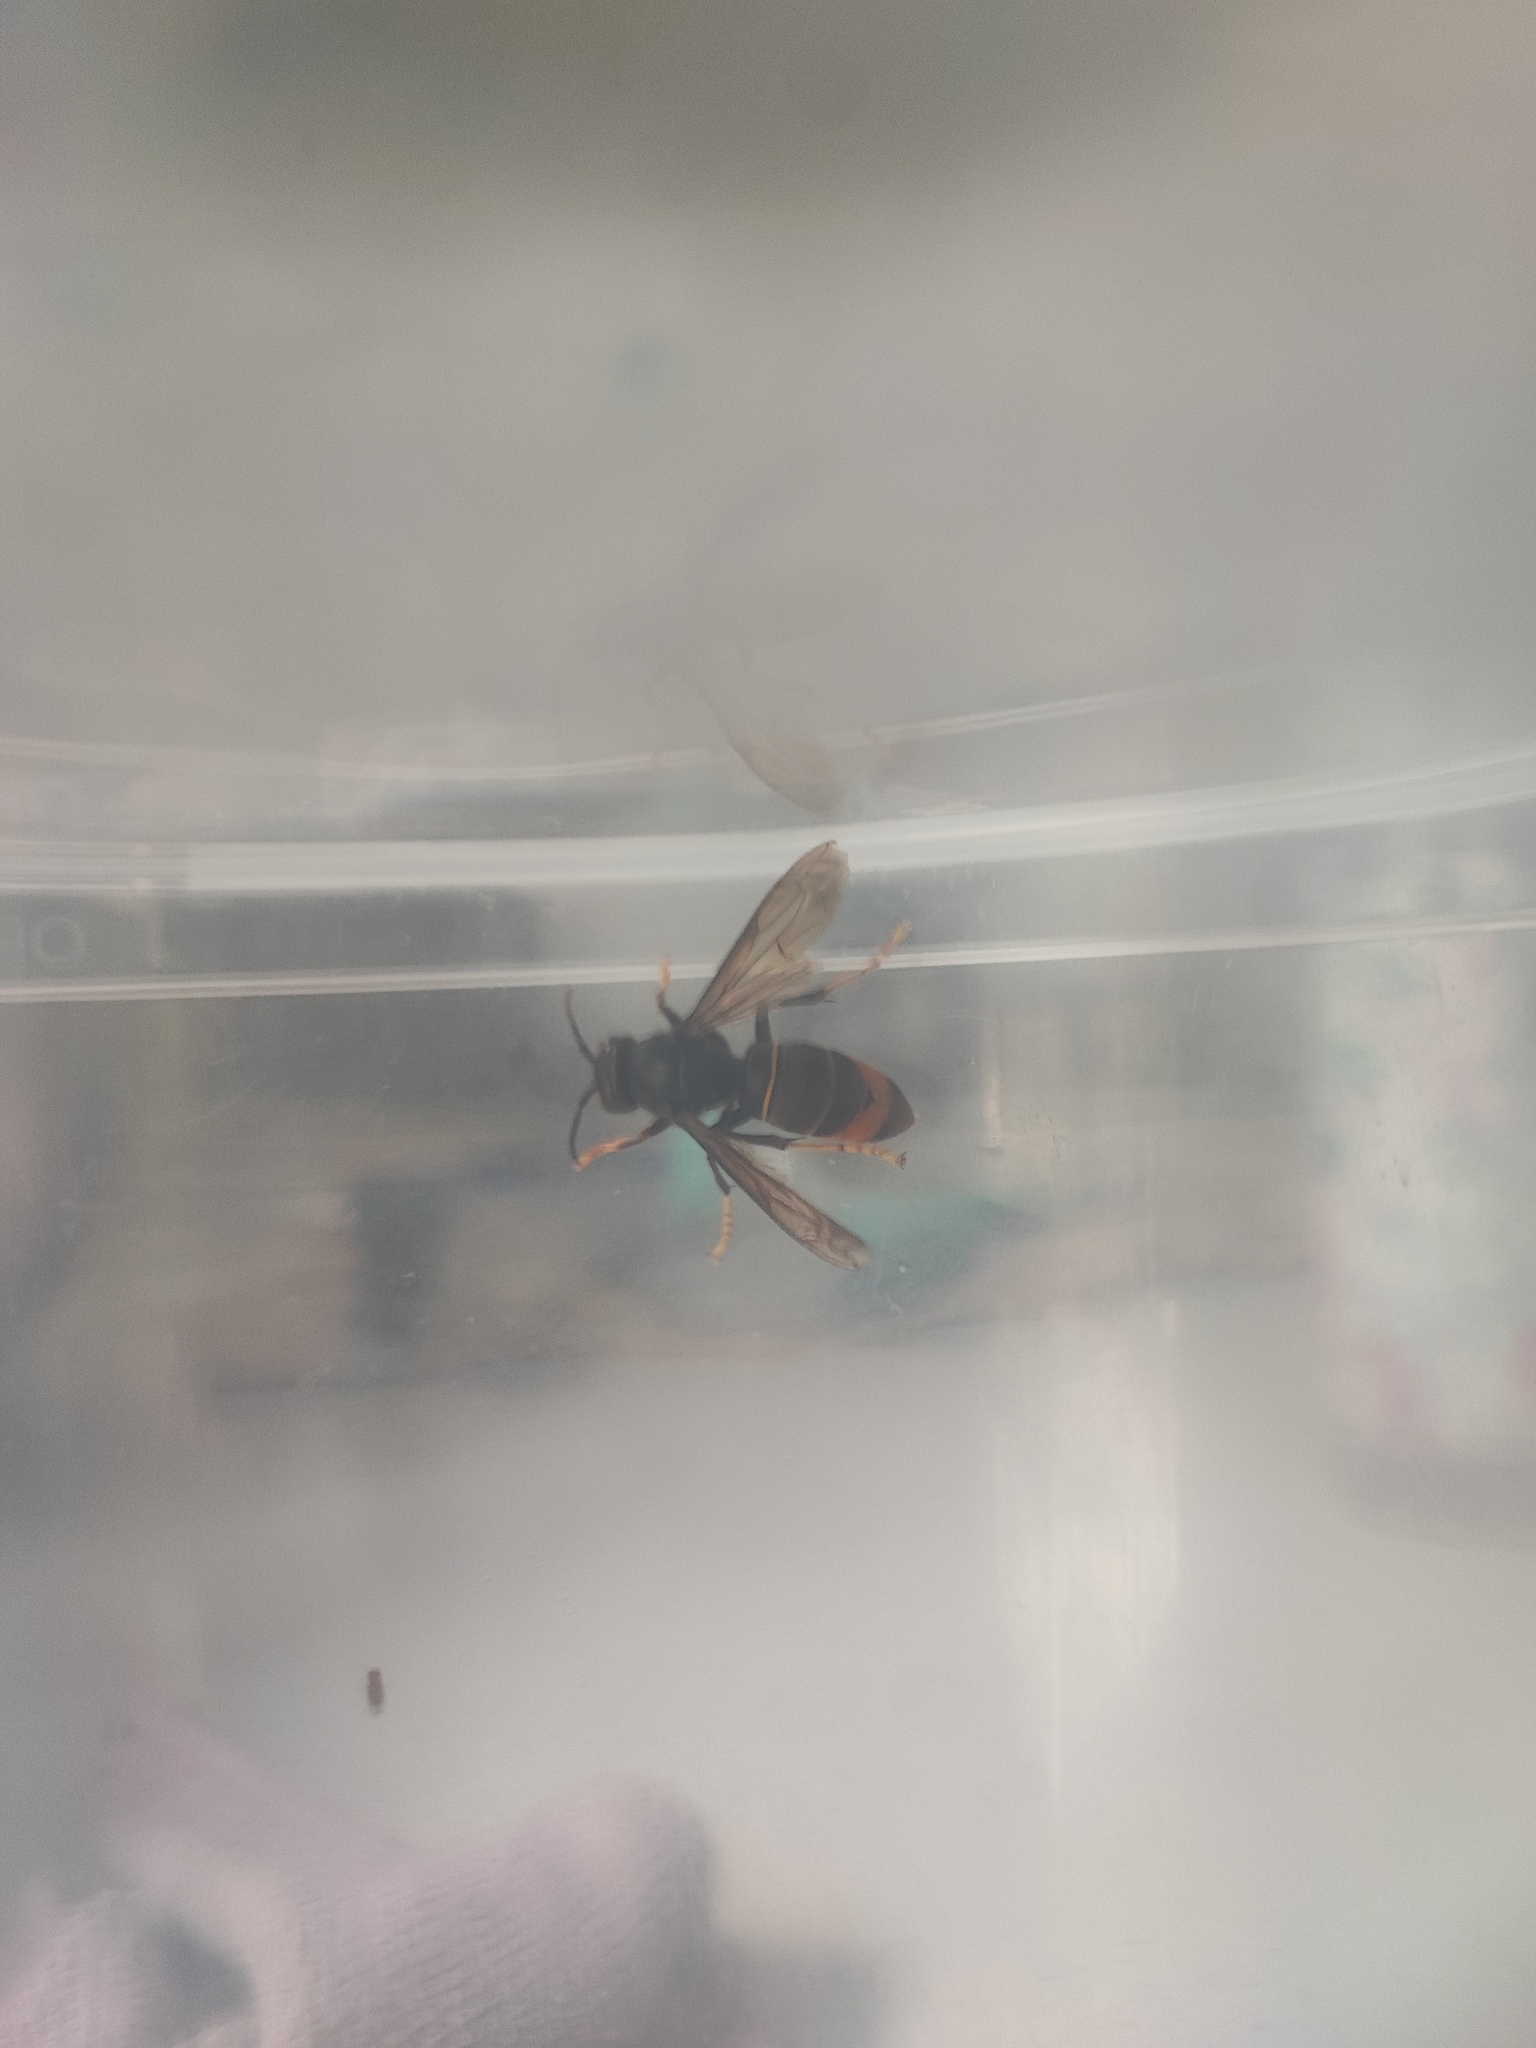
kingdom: Animalia
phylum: Arthropoda
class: Insecta
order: Hymenoptera
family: Vespidae
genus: Vespa
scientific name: Vespa velutina
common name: Asian hornet
